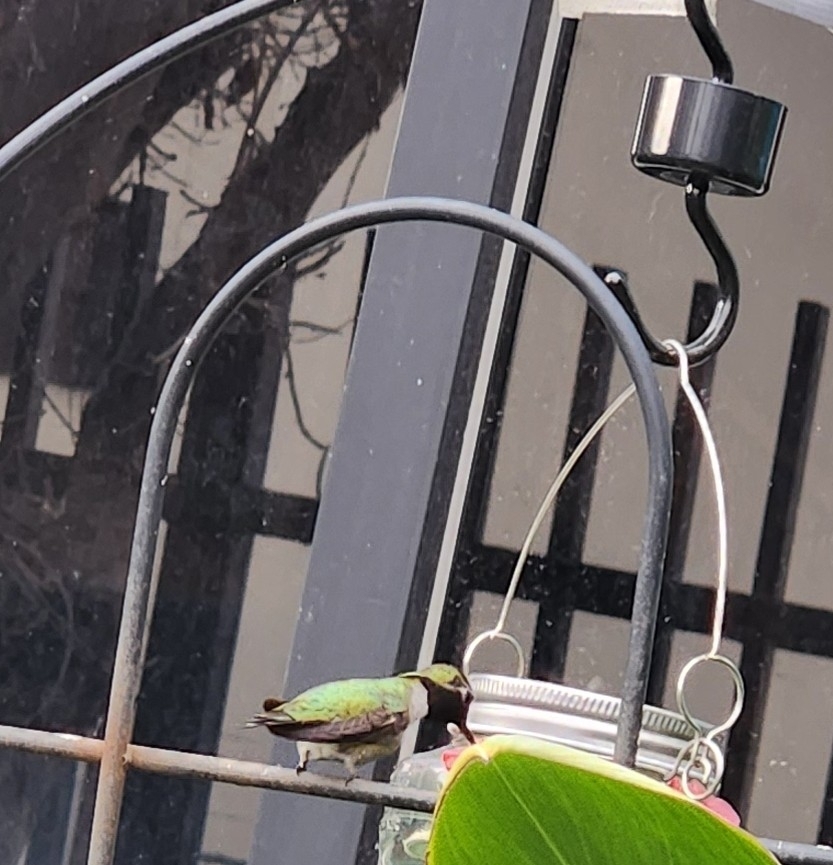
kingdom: Animalia
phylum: Chordata
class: Aves
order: Apodiformes
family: Trochilidae
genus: Calypte
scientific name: Calypte anna
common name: Anna's hummingbird
